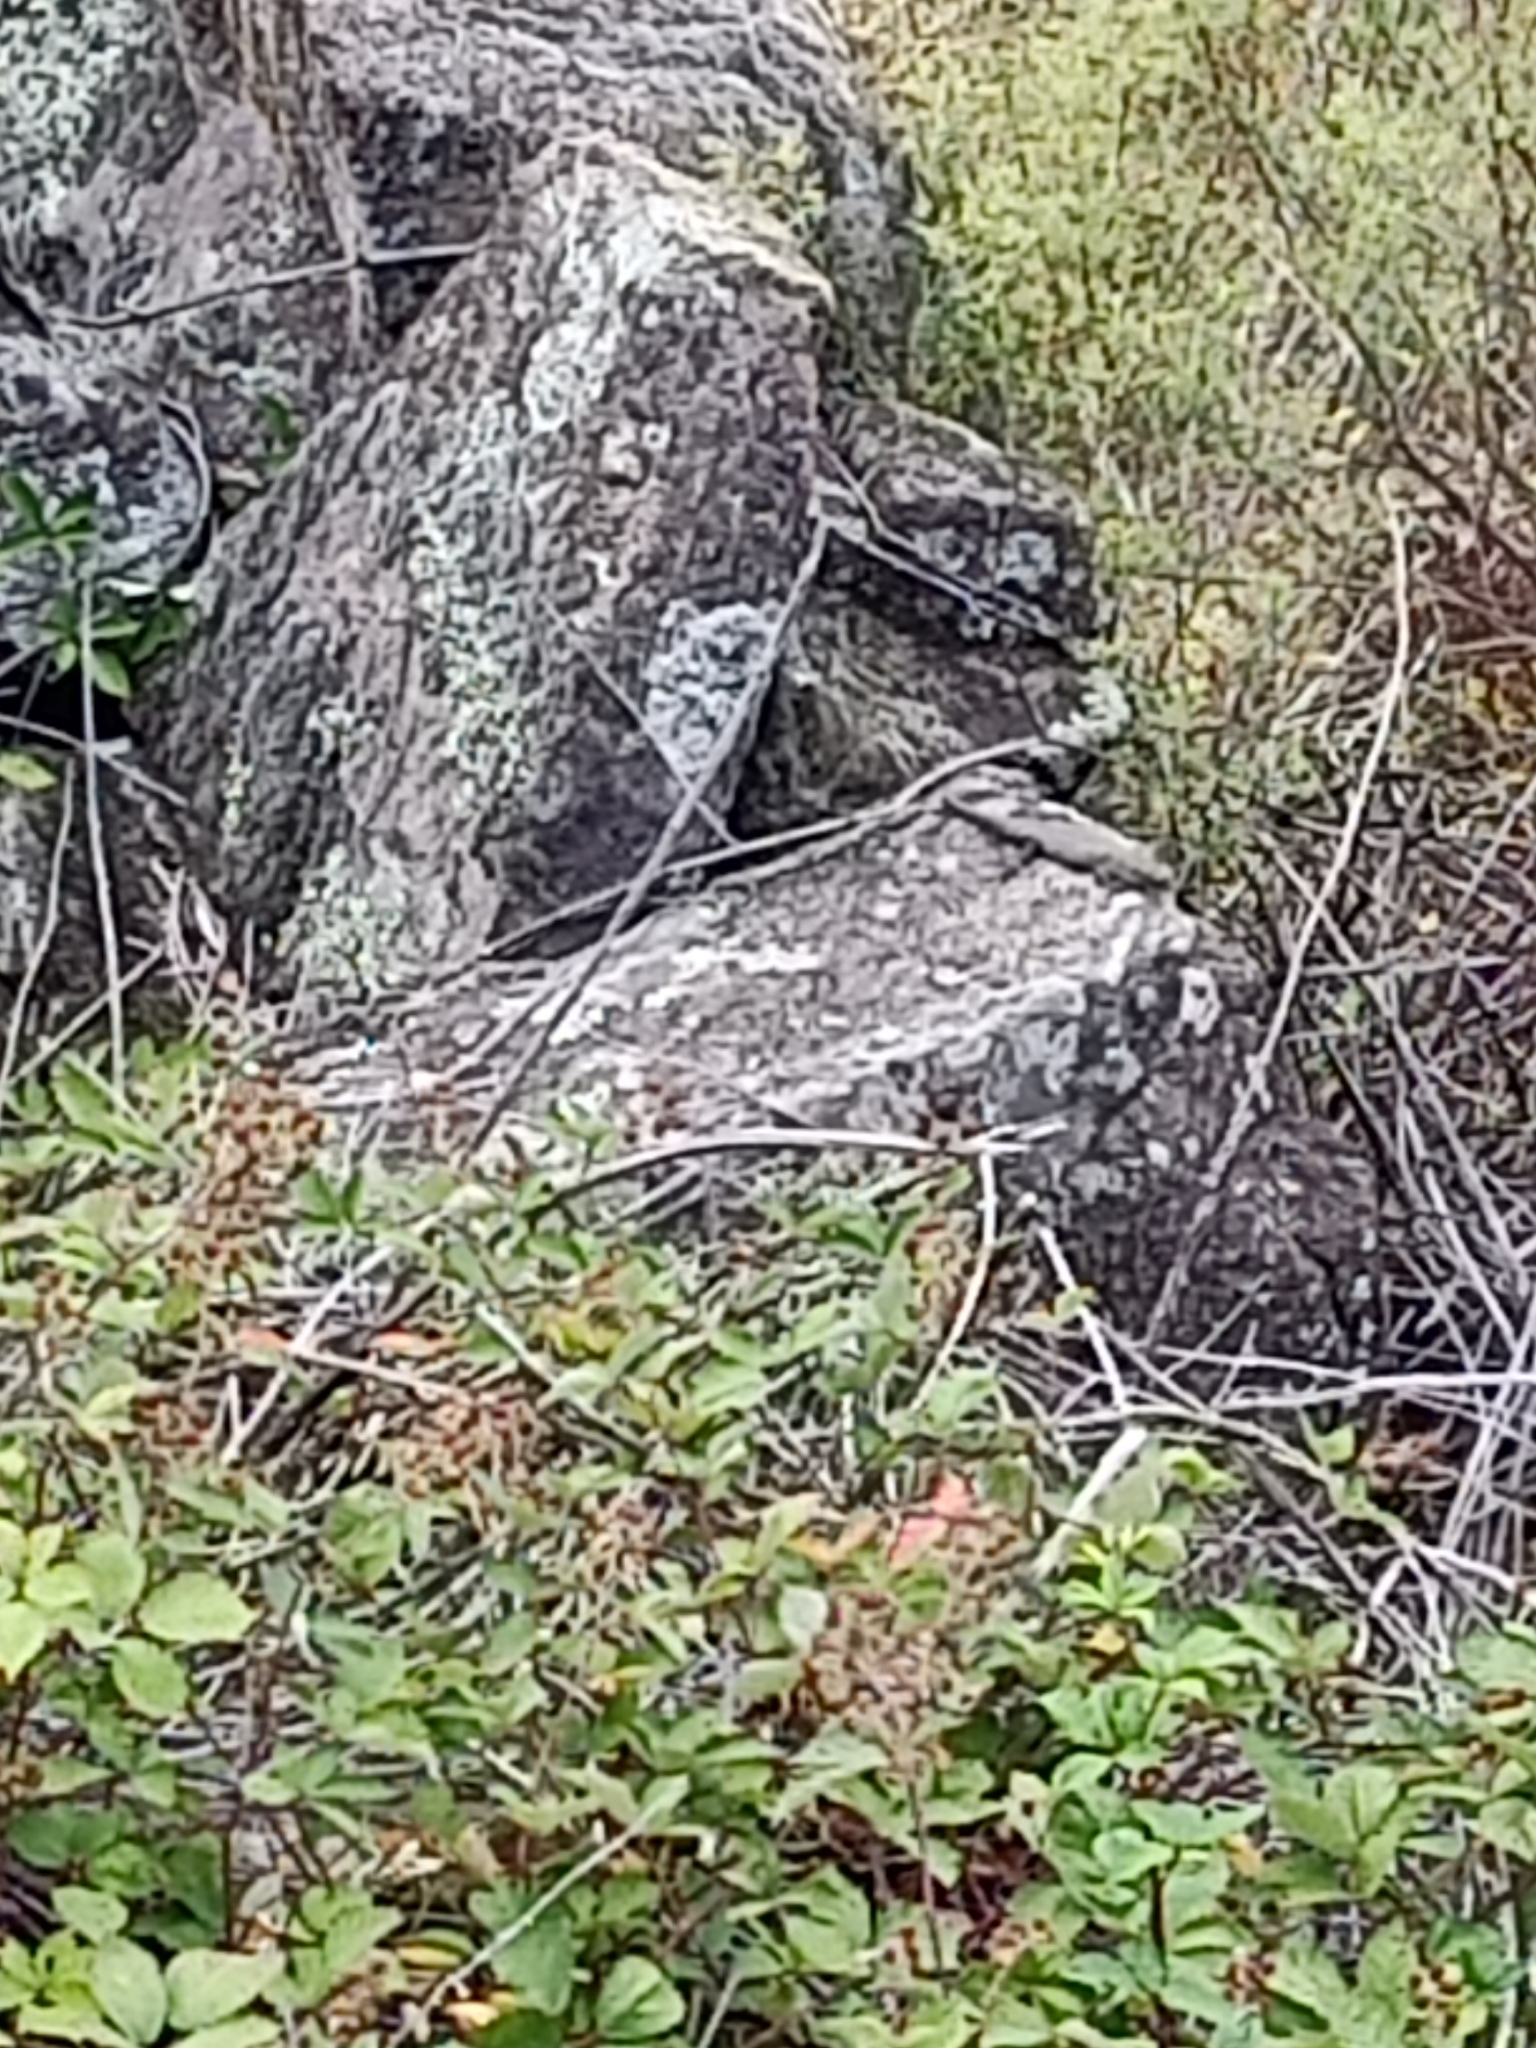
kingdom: Animalia
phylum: Chordata
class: Squamata
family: Scincidae
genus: Egernia
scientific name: Egernia cunninghami
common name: Cunningham's skink
